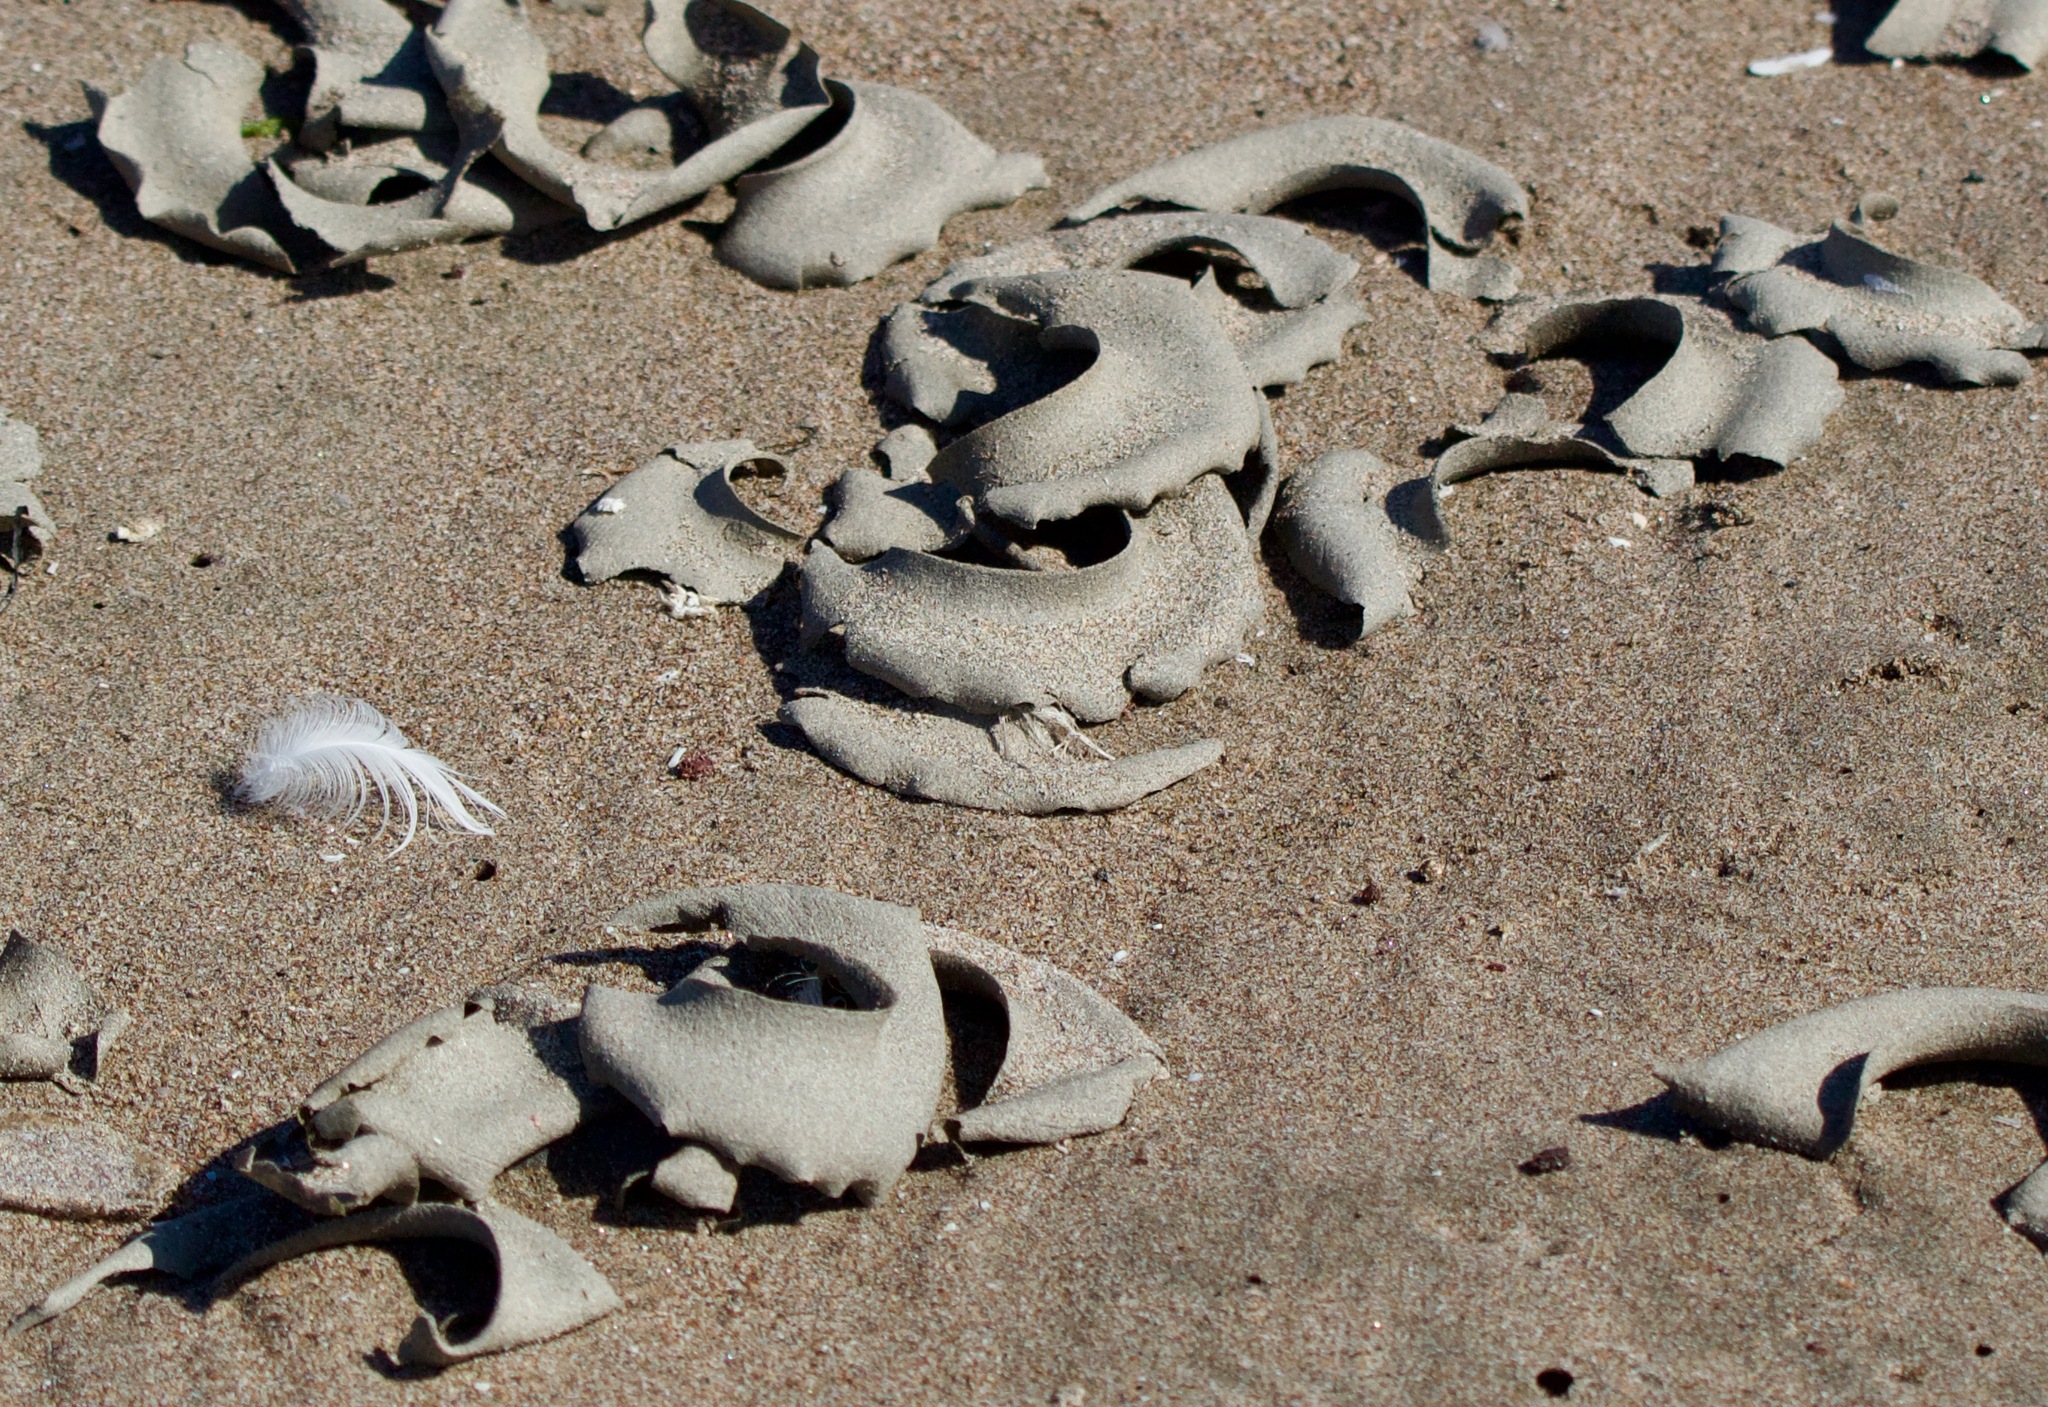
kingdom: Animalia
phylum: Mollusca
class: Gastropoda
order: Littorinimorpha
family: Naticidae
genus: Sinum
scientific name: Sinum cymba
